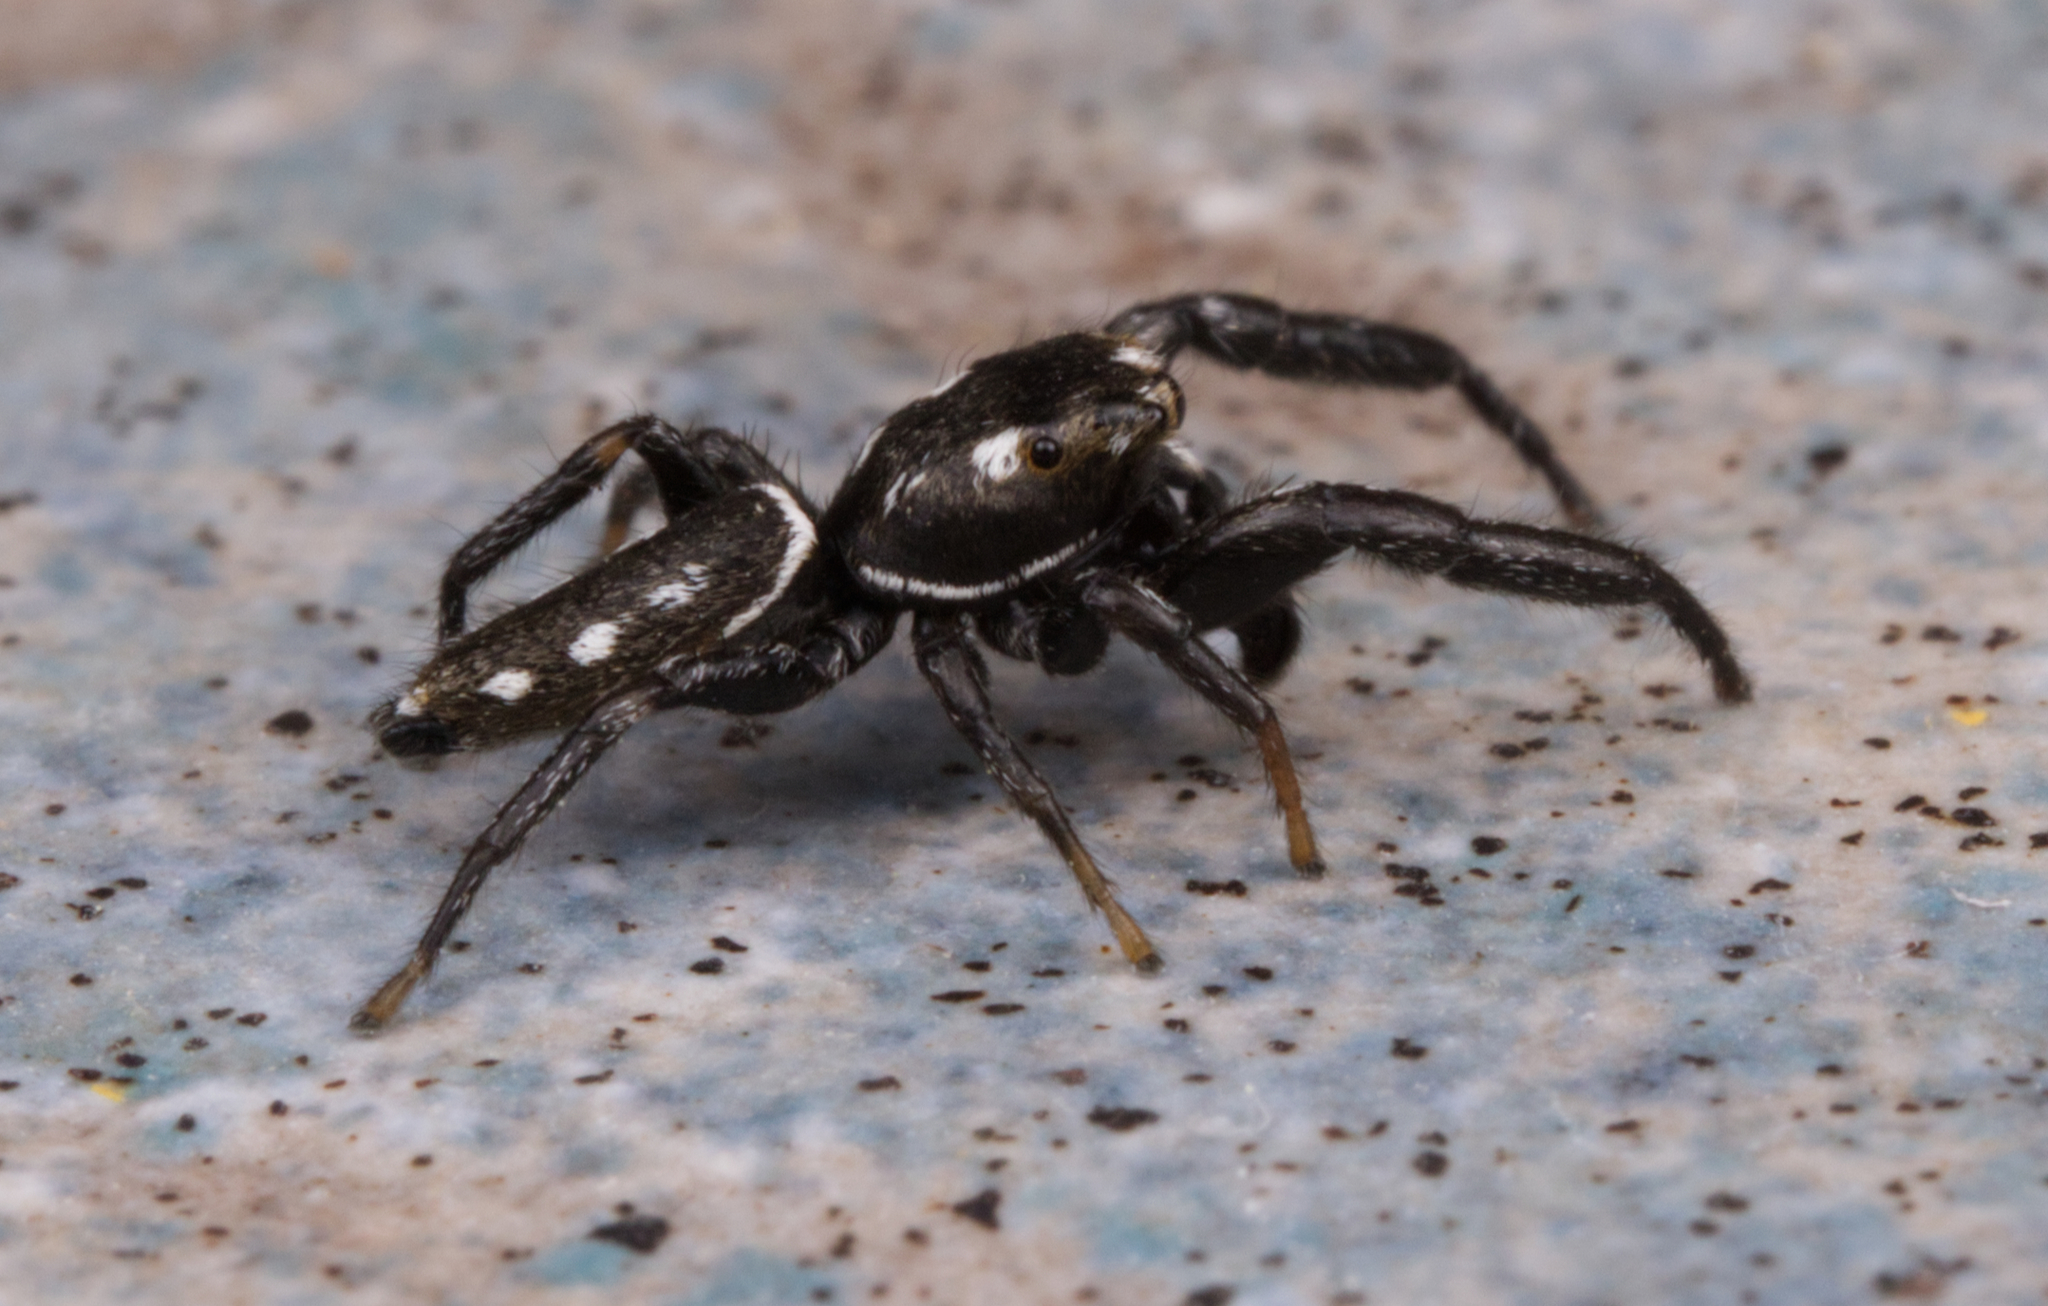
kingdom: Animalia
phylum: Arthropoda
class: Arachnida
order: Araneae
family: Salticidae
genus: Marpissa
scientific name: Marpissa formosa
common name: Short-bellied slender jumping spider
